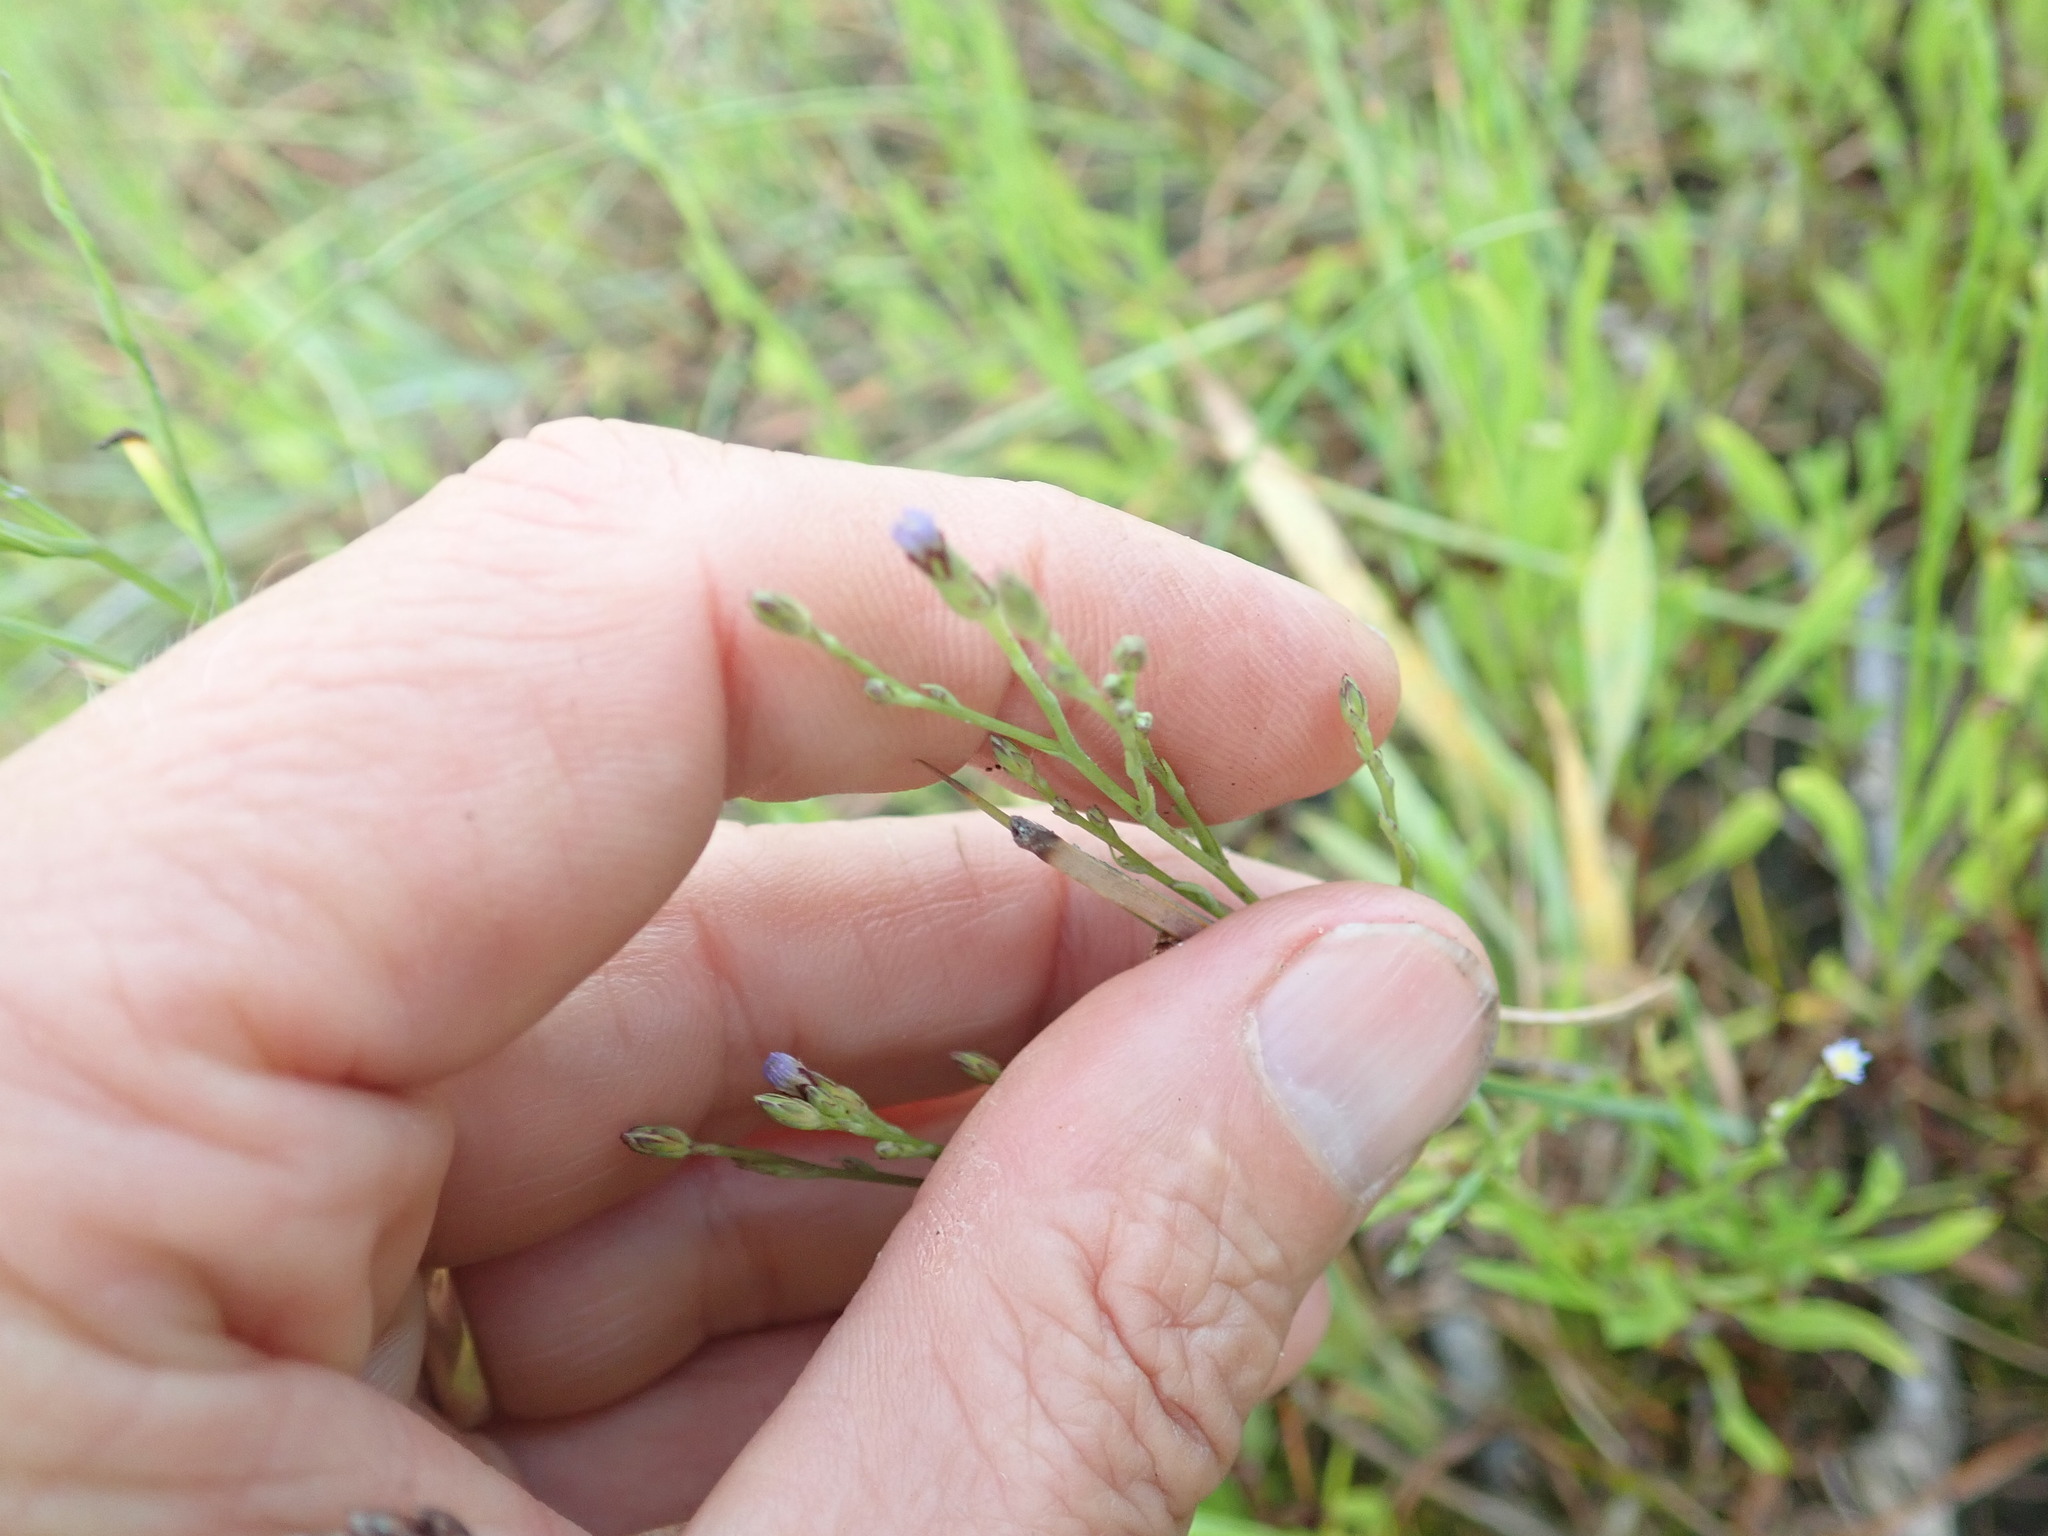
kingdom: Plantae
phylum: Tracheophyta
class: Magnoliopsida
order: Asterales
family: Asteraceae
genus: Symphyotrichum
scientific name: Symphyotrichum subulatum
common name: Annual saltmarsh aster
